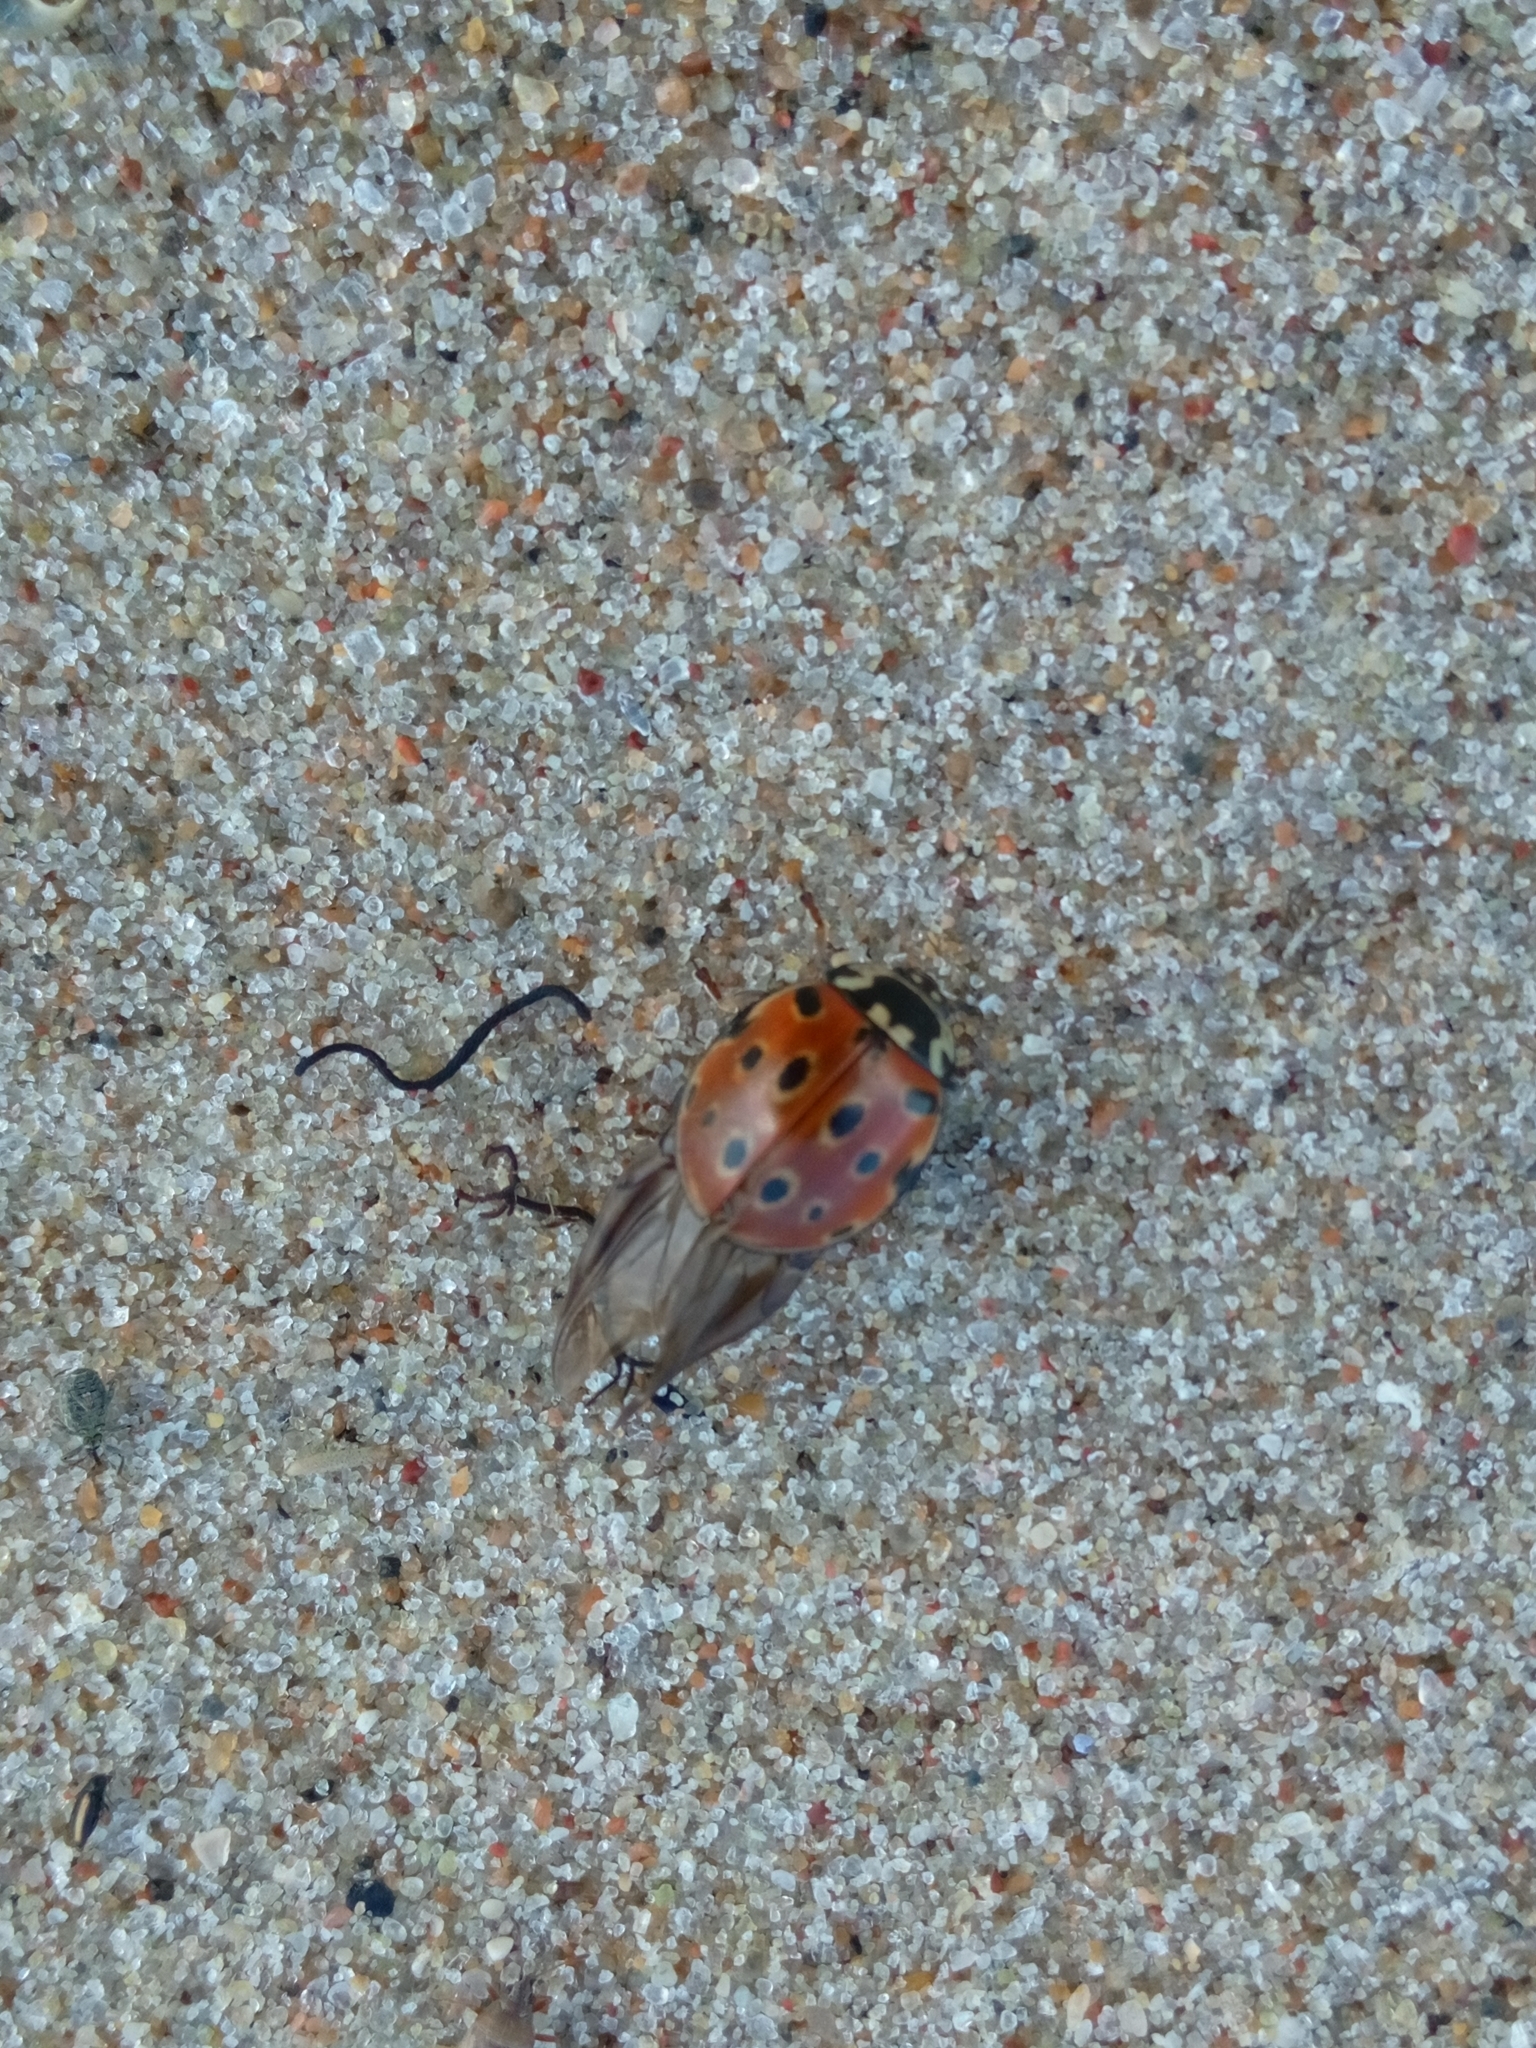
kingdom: Animalia
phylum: Arthropoda
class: Insecta
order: Coleoptera
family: Coccinellidae
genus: Anatis
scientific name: Anatis ocellata
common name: Eyed ladybird
